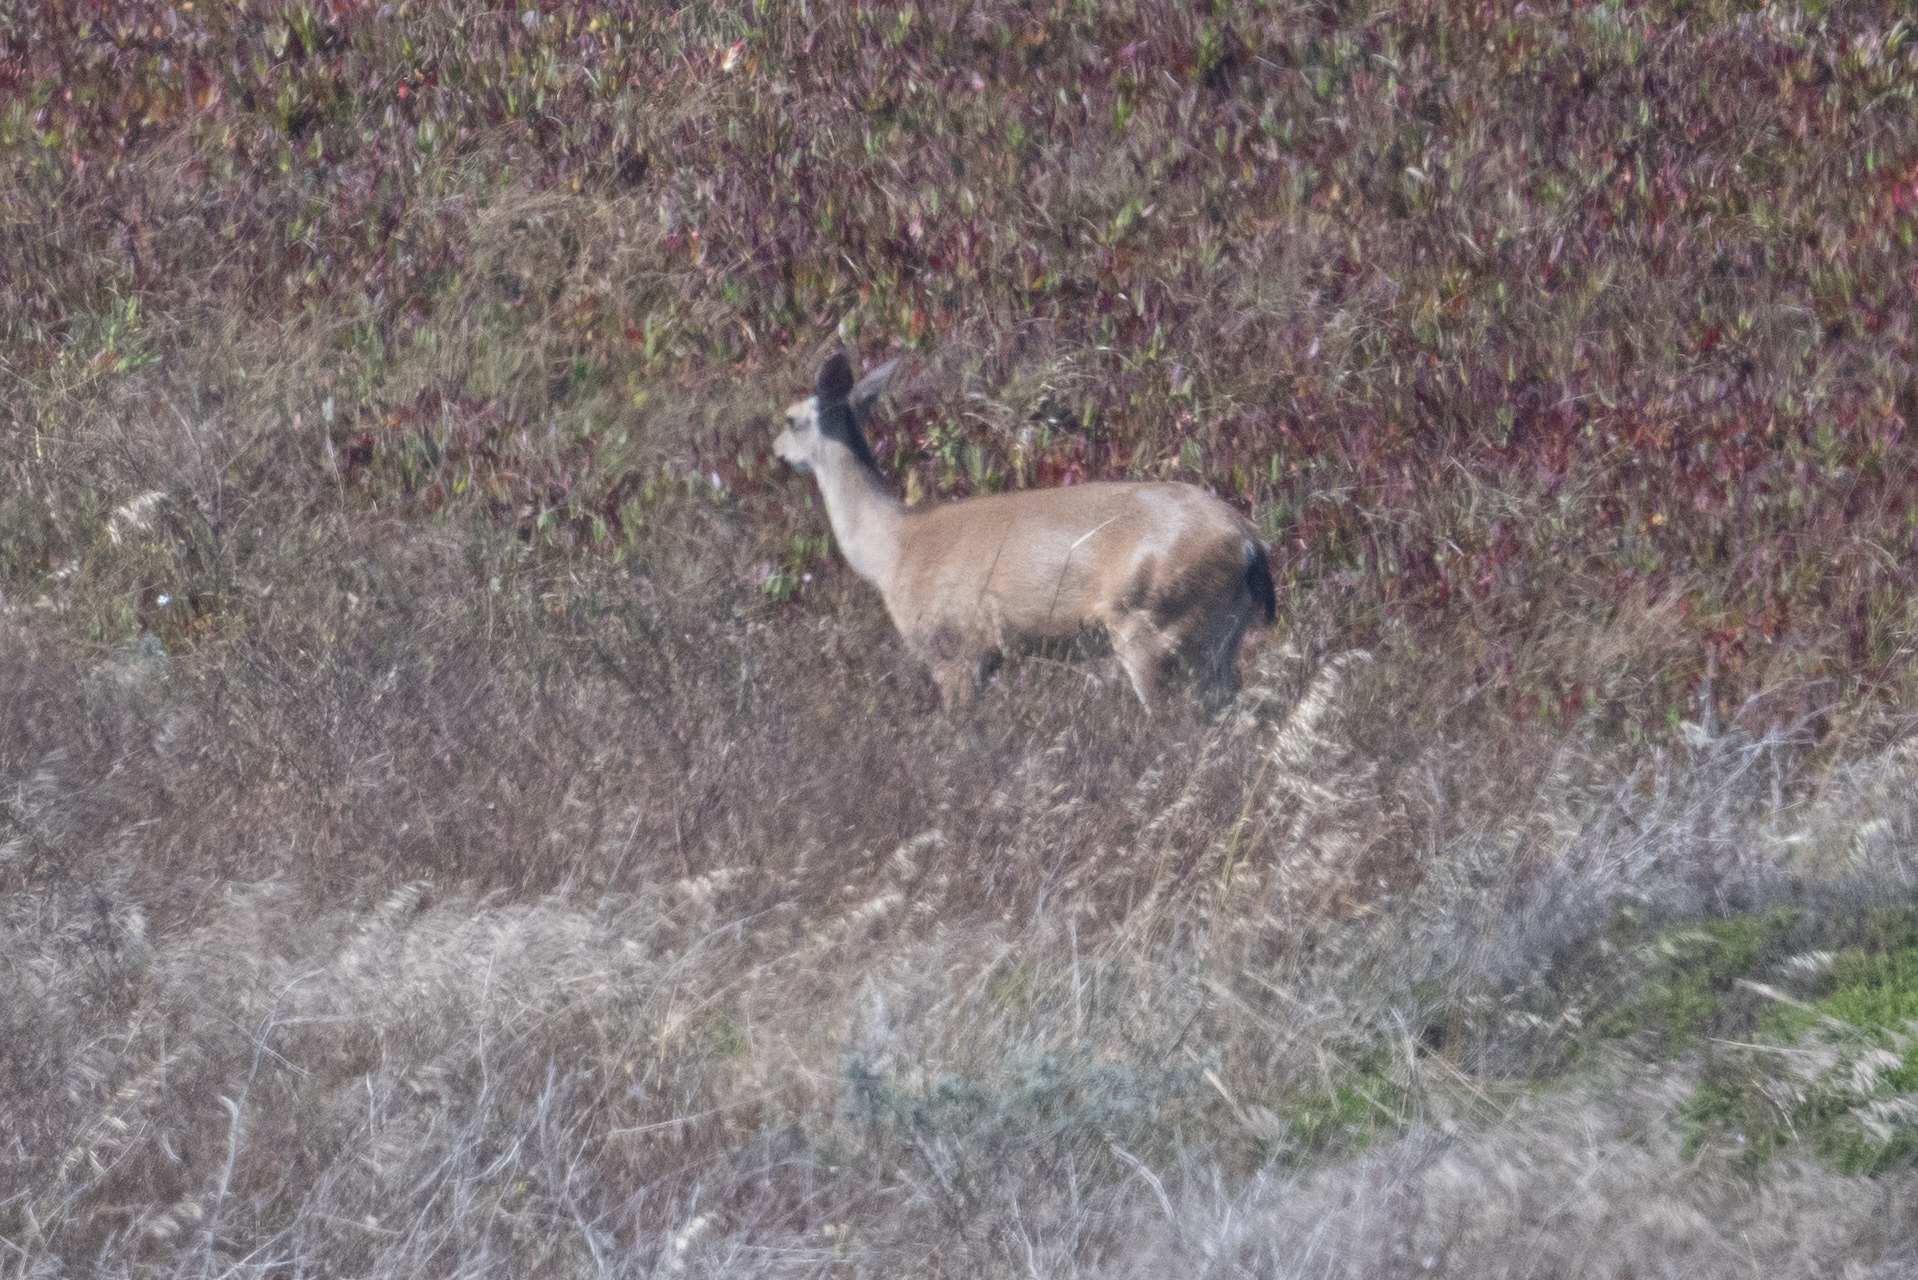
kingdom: Animalia
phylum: Chordata
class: Mammalia
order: Artiodactyla
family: Cervidae
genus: Odocoileus
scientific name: Odocoileus hemionus
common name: Mule deer
